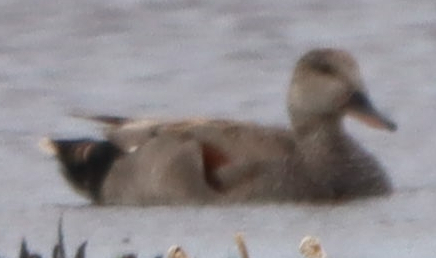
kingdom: Animalia
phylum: Chordata
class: Aves
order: Anseriformes
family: Anatidae
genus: Mareca
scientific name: Mareca strepera
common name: Gadwall
